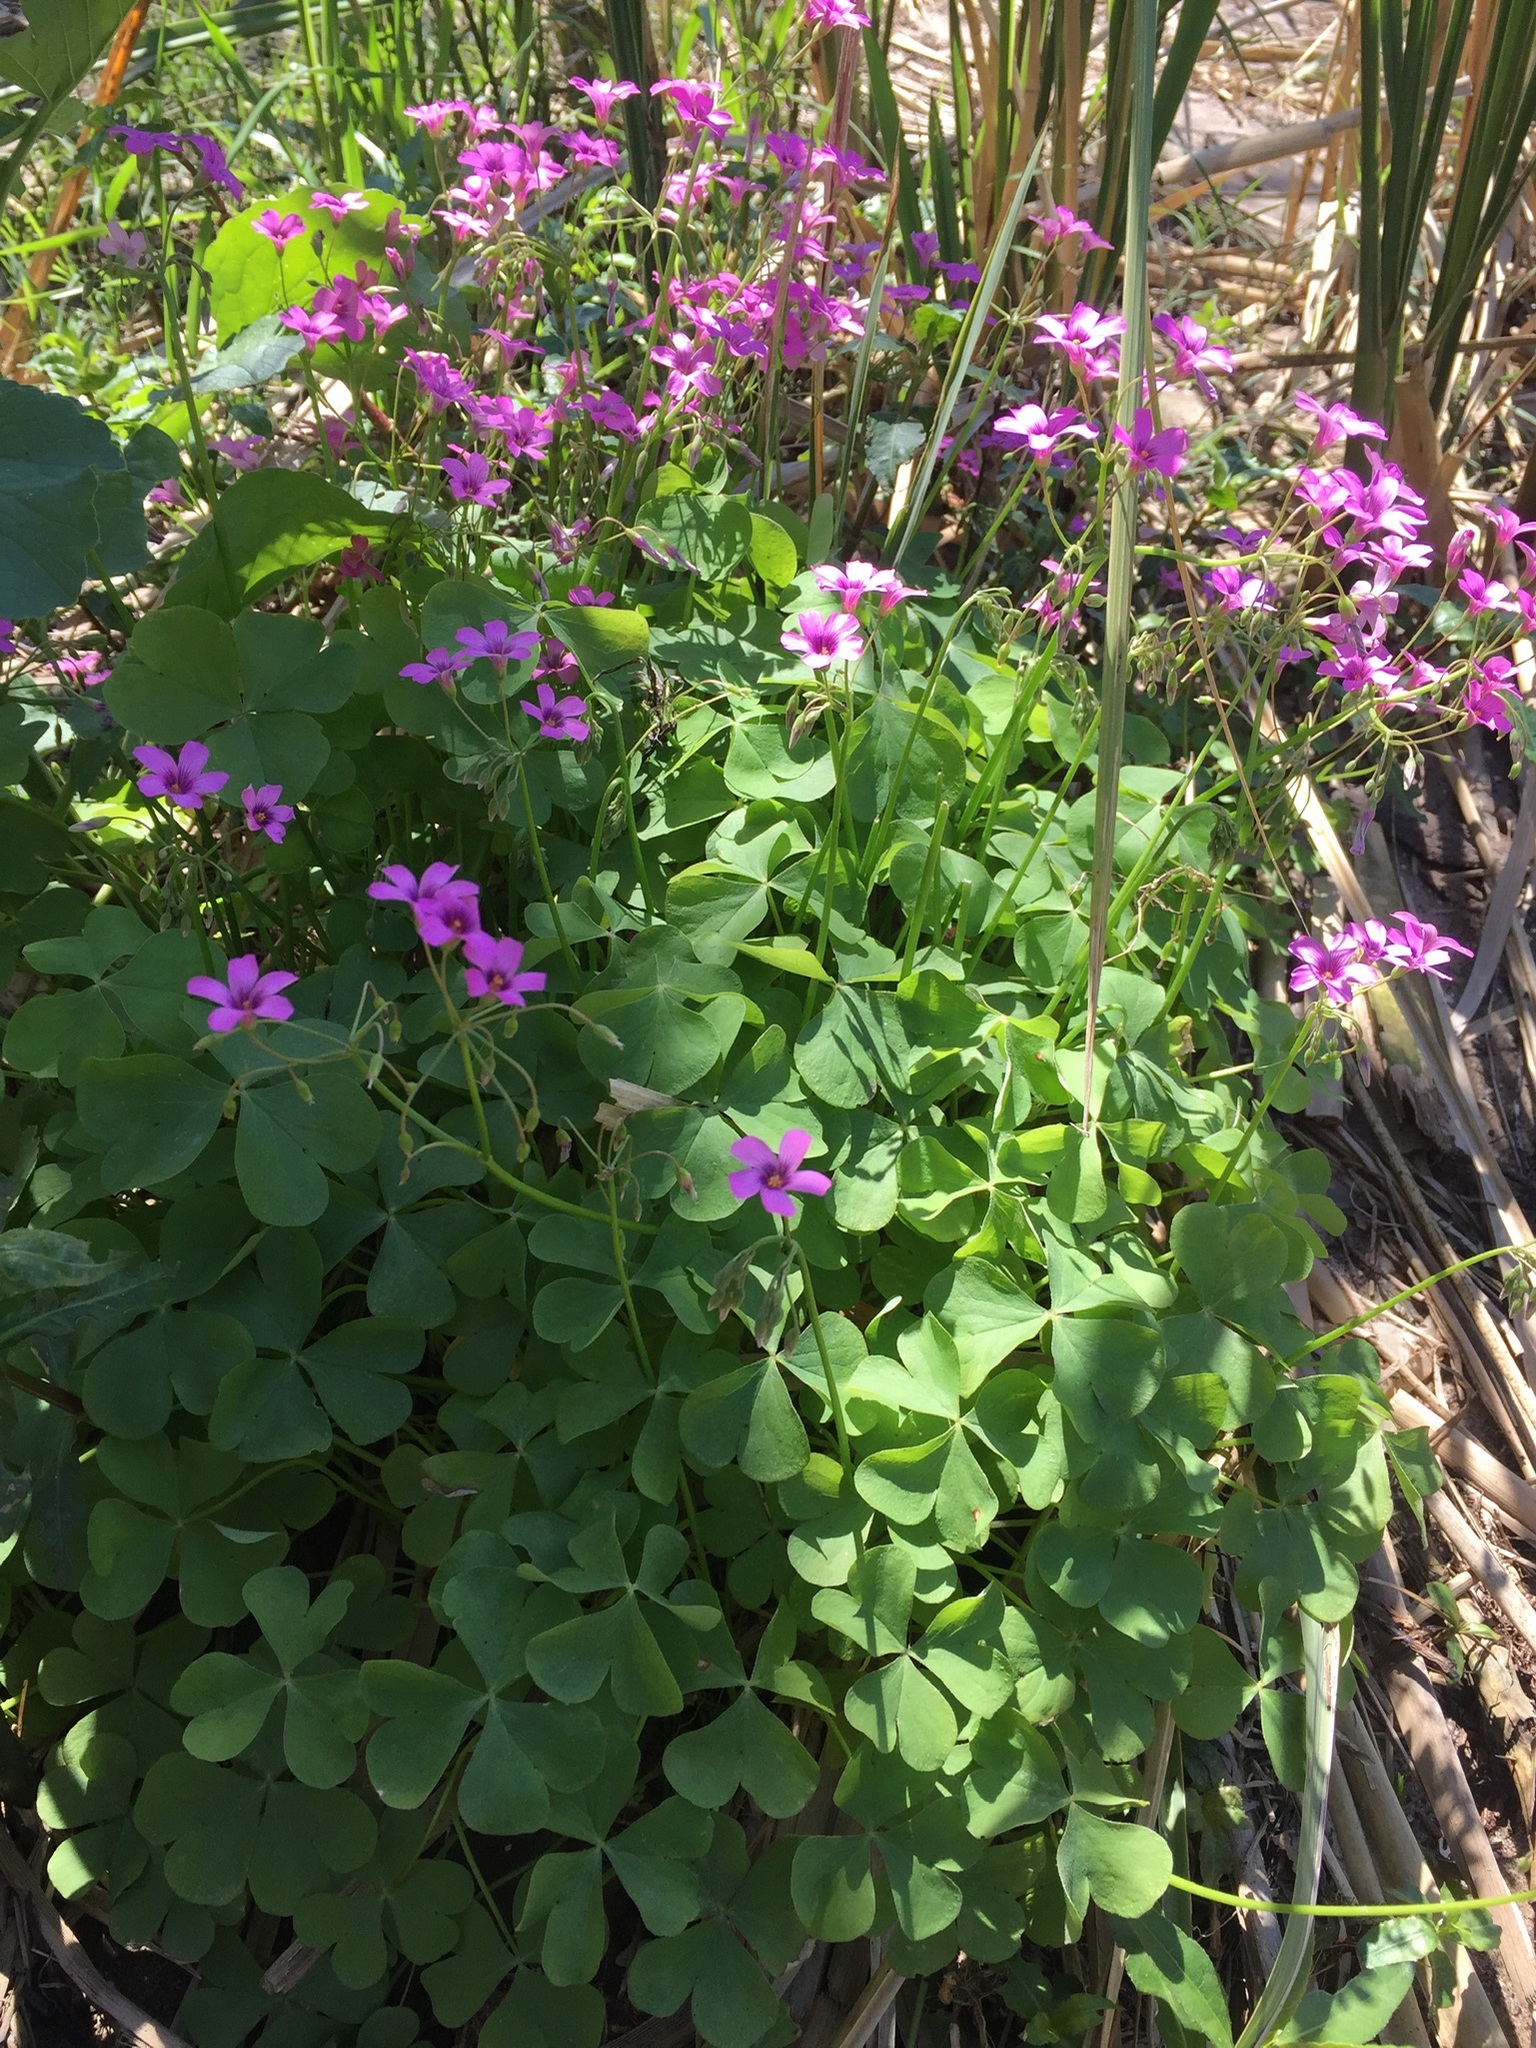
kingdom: Plantae
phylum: Tracheophyta
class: Magnoliopsida
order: Oxalidales
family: Oxalidaceae
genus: Oxalis
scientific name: Oxalis articulata
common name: Pink-sorrel
